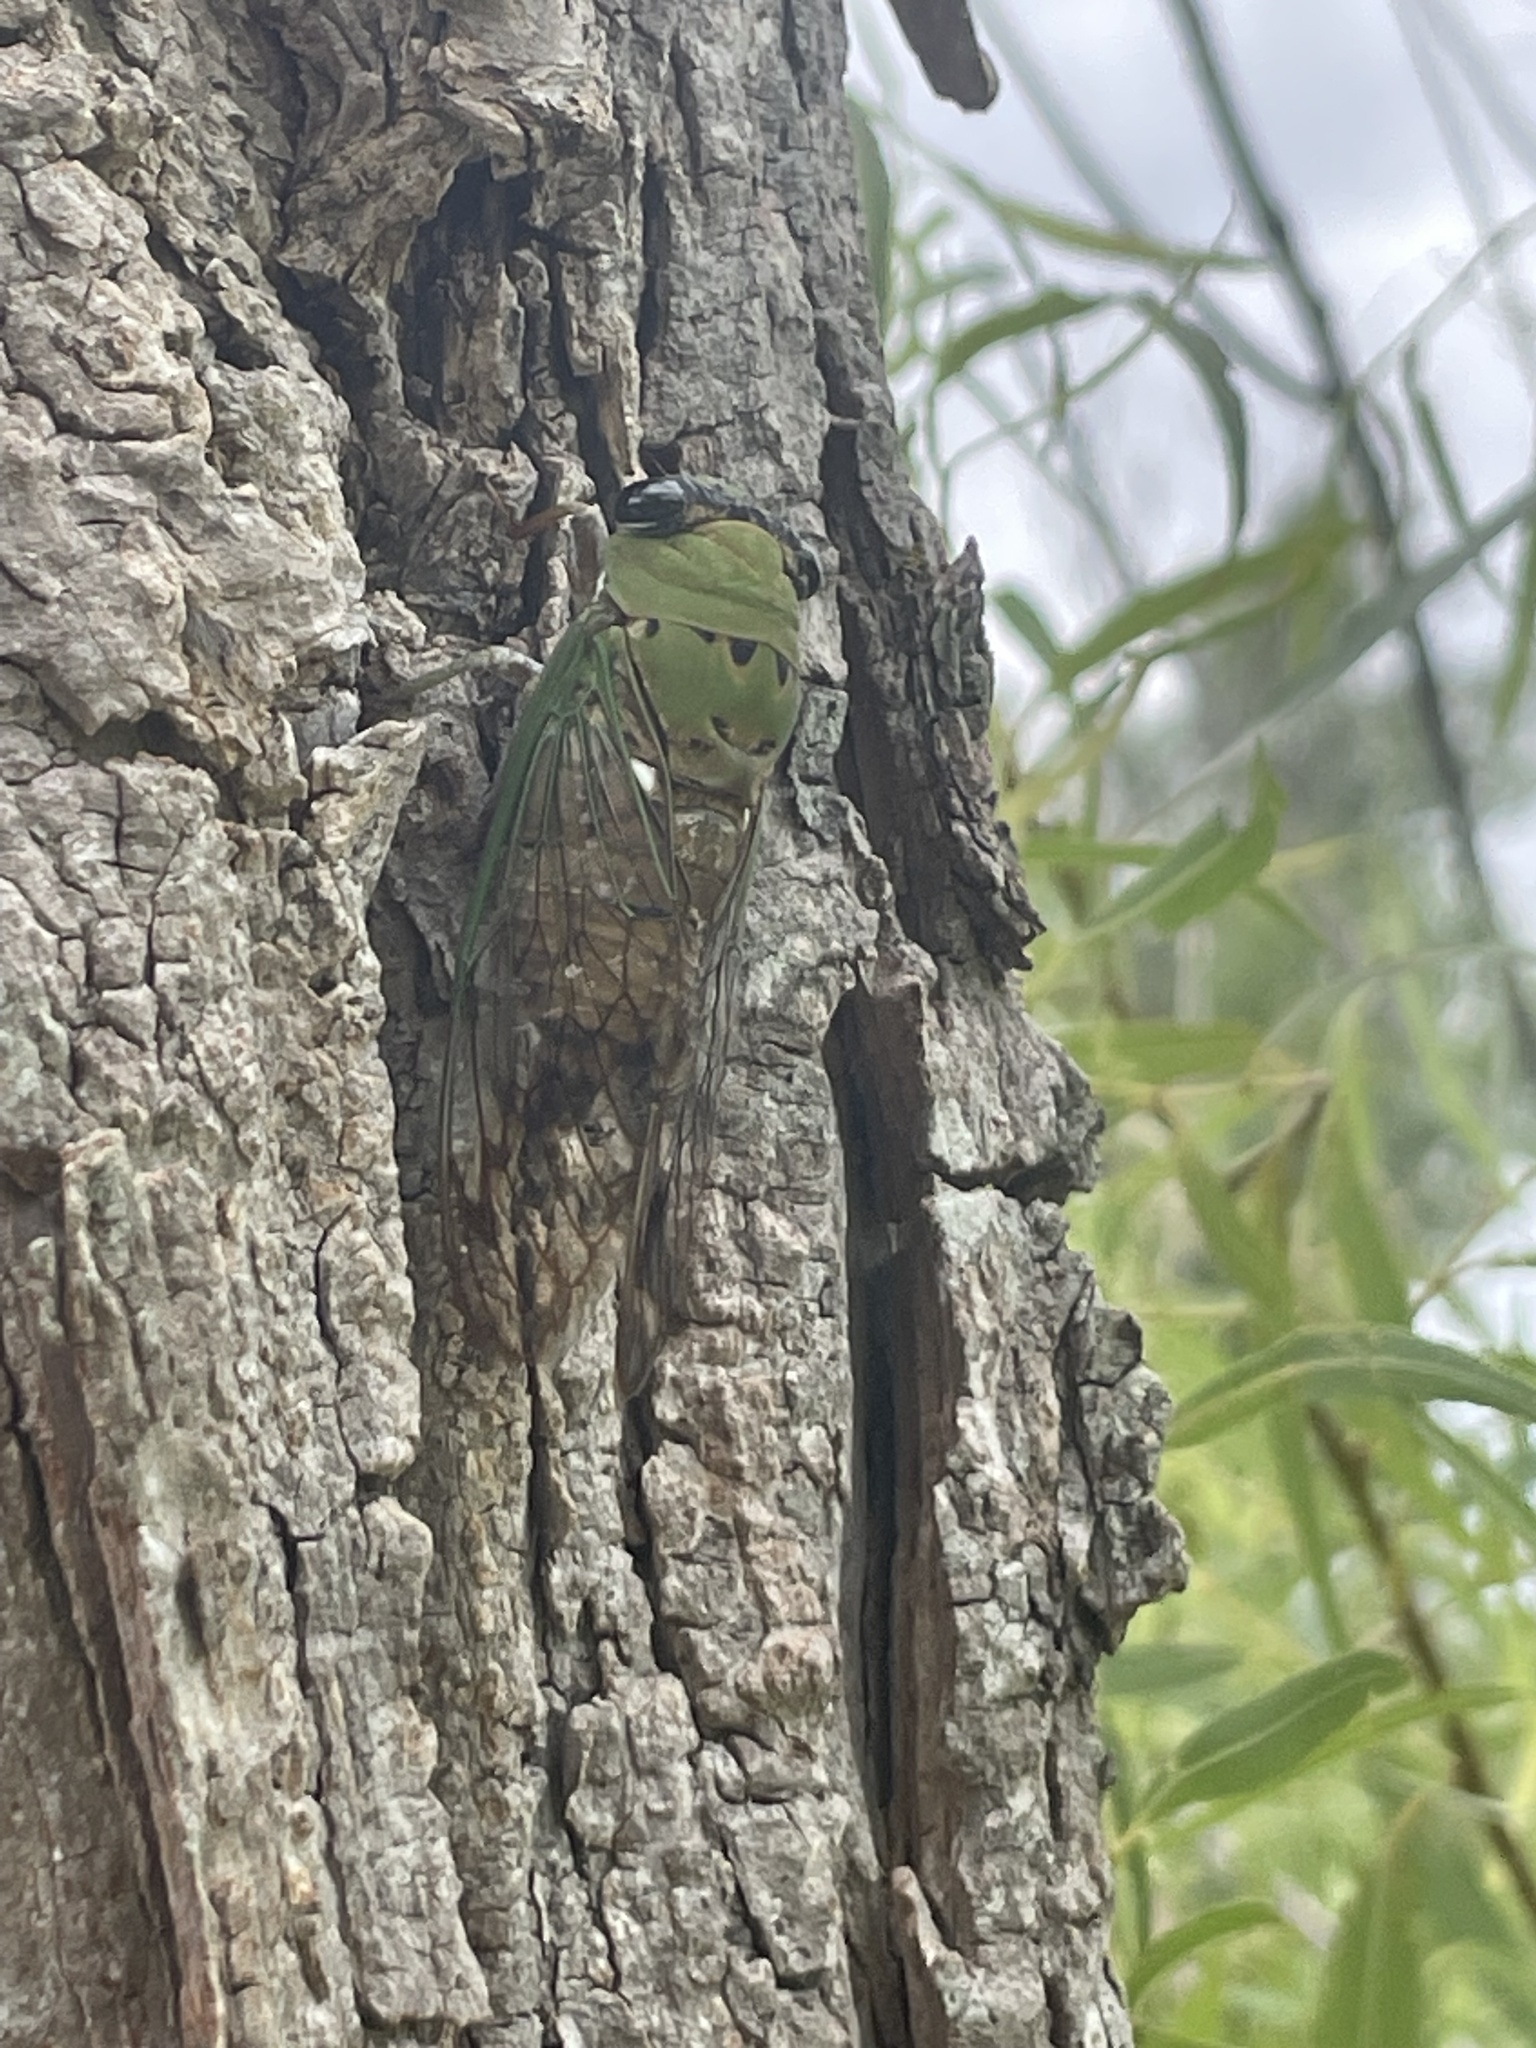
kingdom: Animalia
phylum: Arthropoda
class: Insecta
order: Hemiptera
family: Cicadidae
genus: Neotibicen
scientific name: Neotibicen superbus
